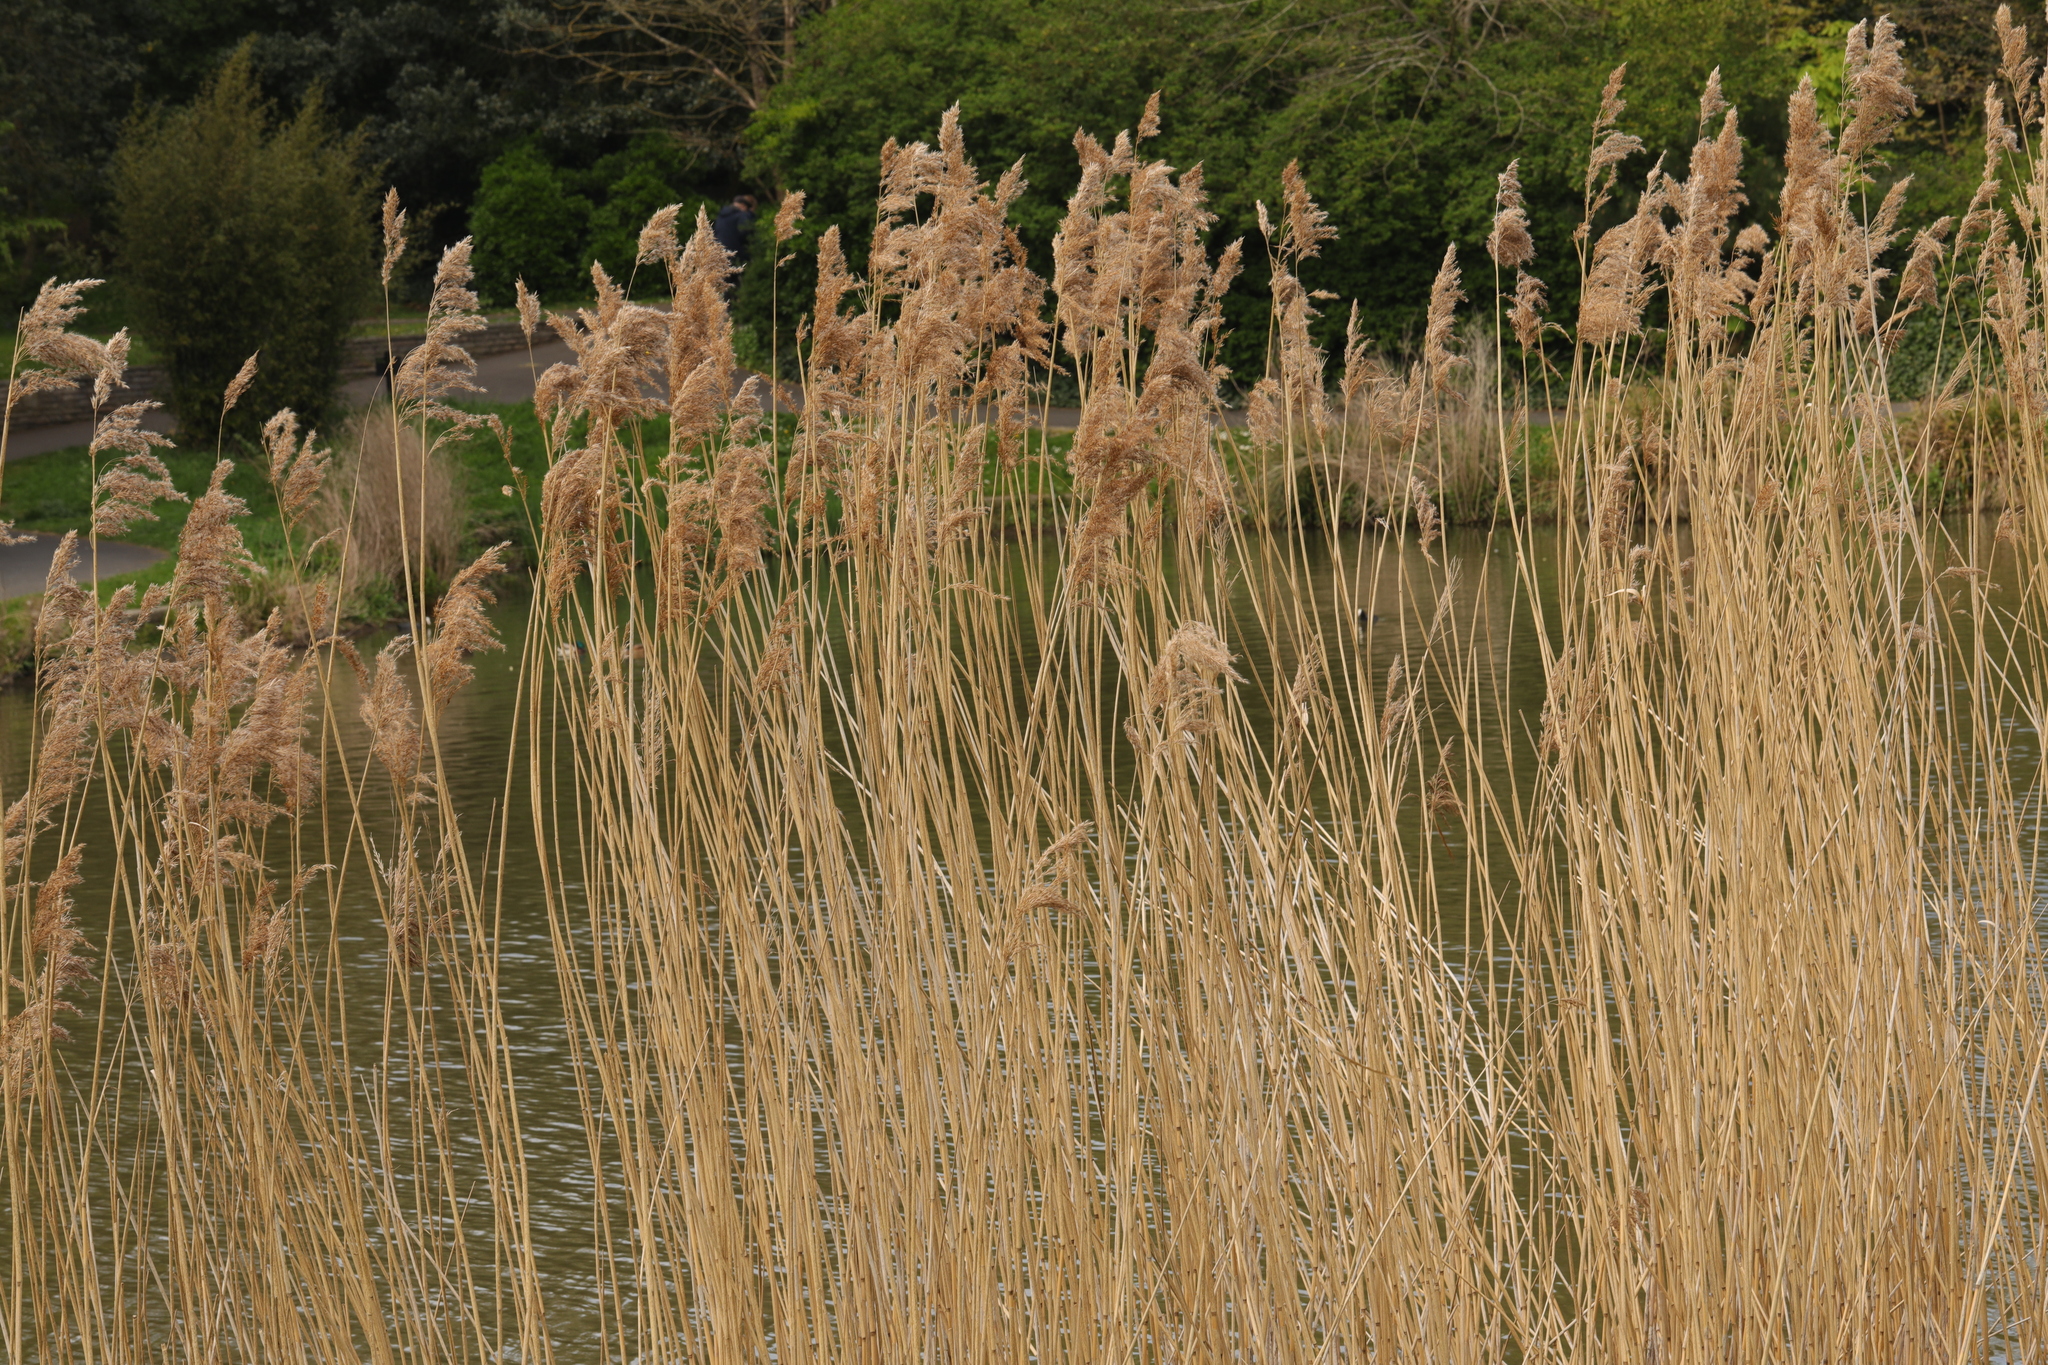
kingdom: Plantae
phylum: Tracheophyta
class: Liliopsida
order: Poales
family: Poaceae
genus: Phragmites
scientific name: Phragmites australis
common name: Common reed
